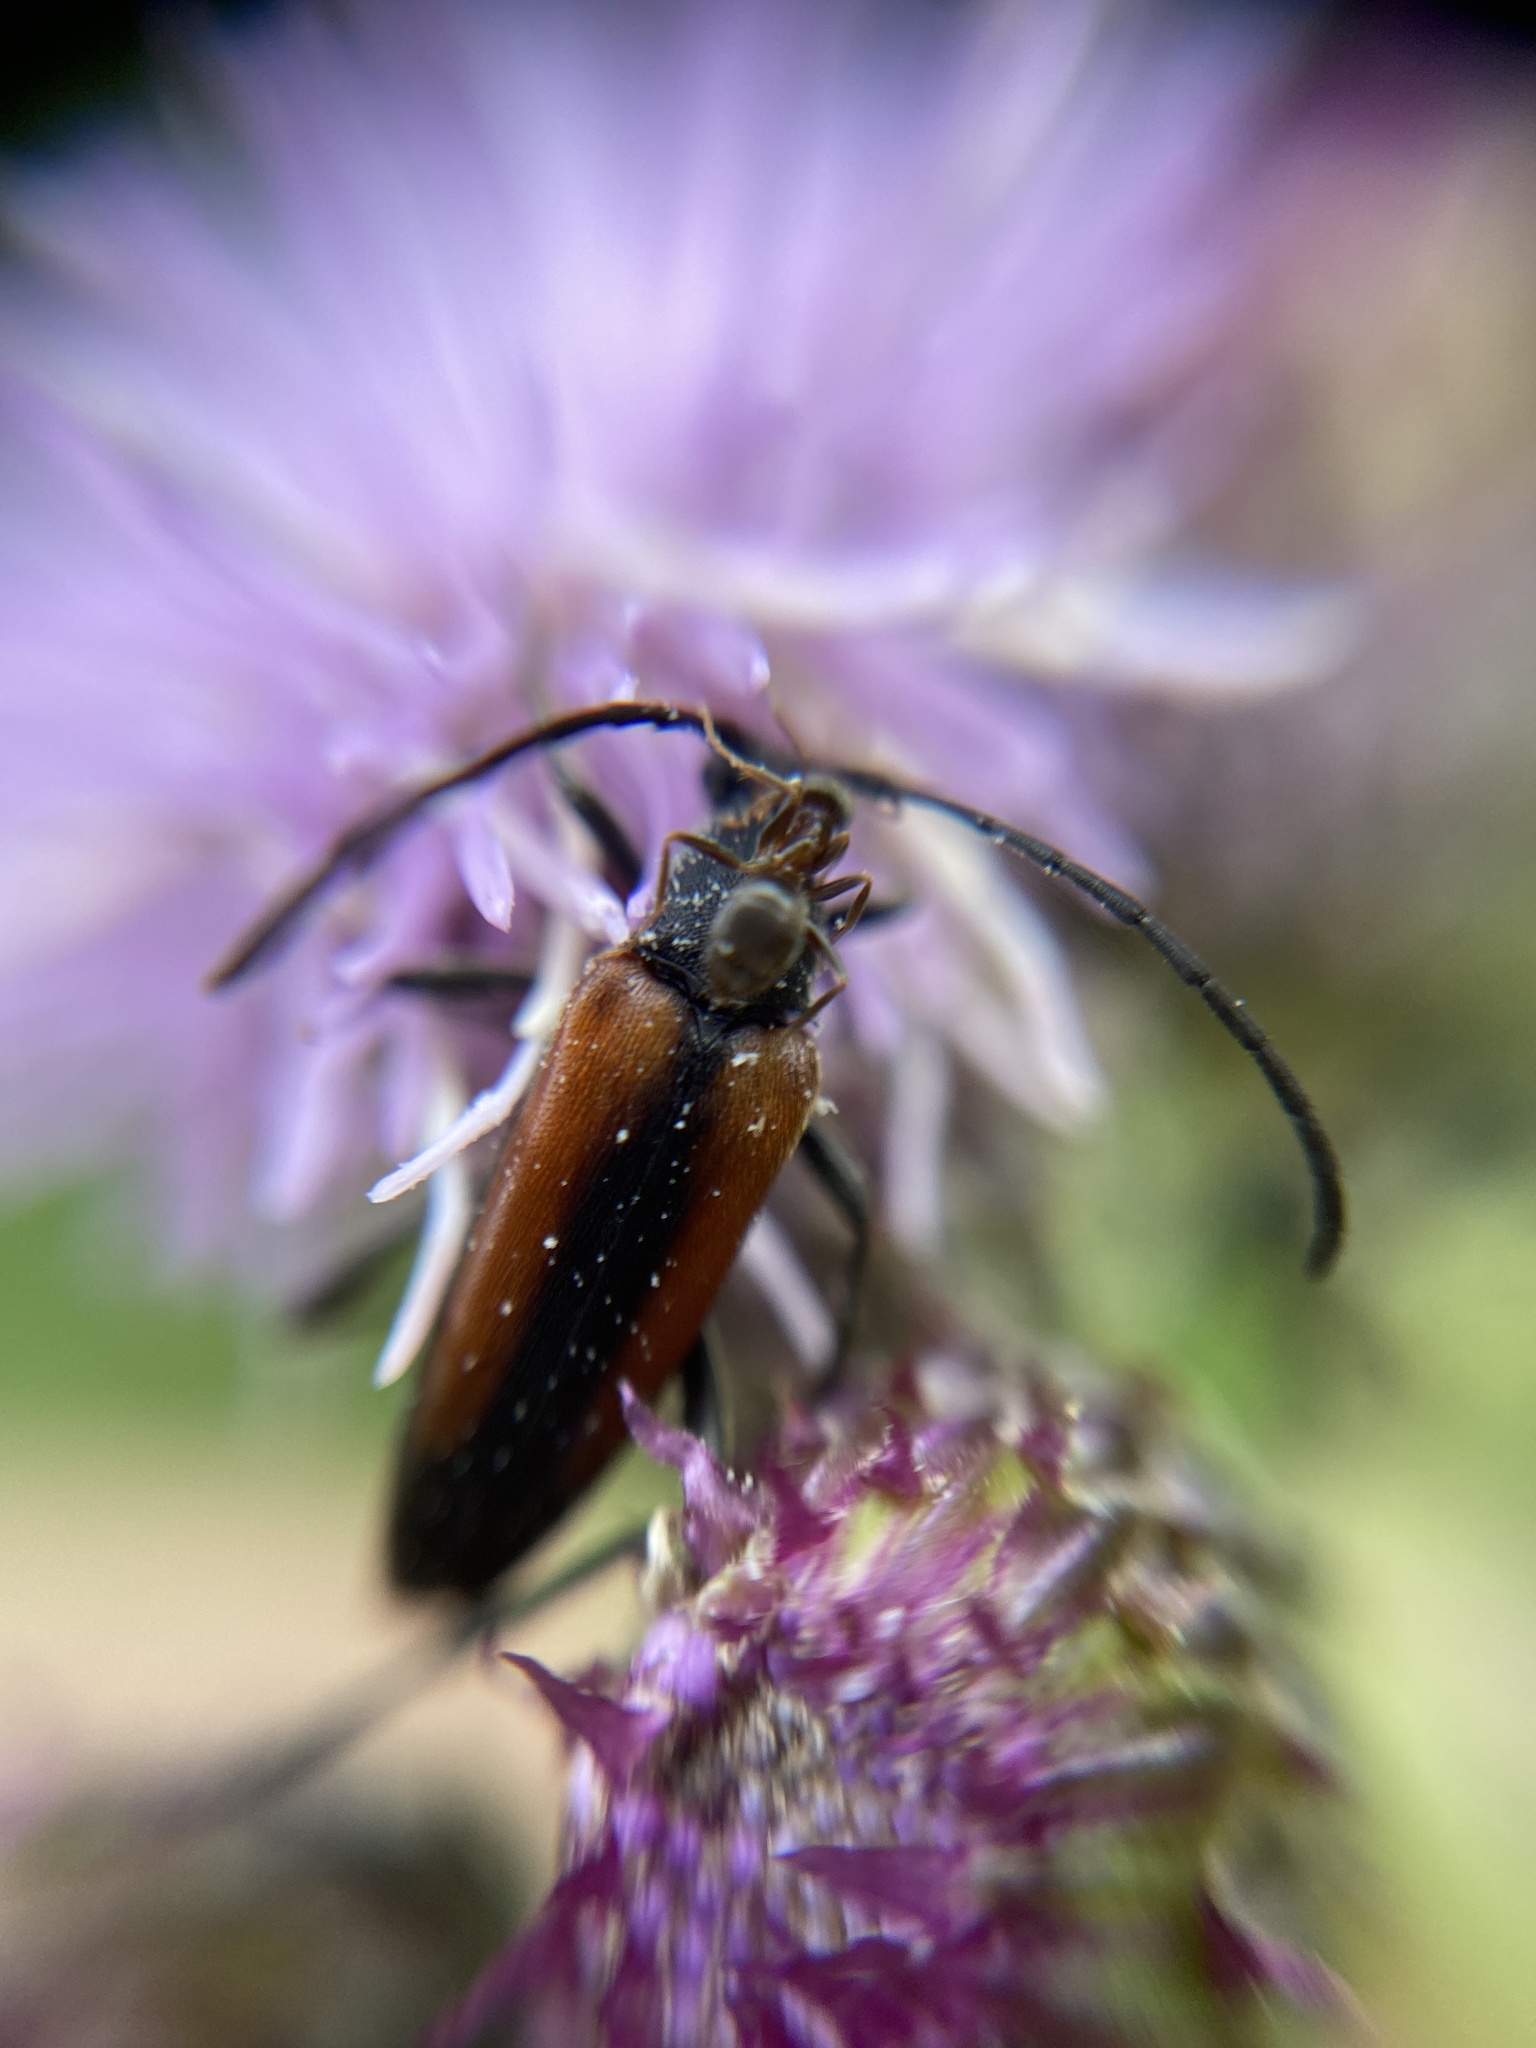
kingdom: Animalia
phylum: Arthropoda
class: Insecta
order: Coleoptera
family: Cerambycidae
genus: Stenurella
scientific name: Stenurella melanura
